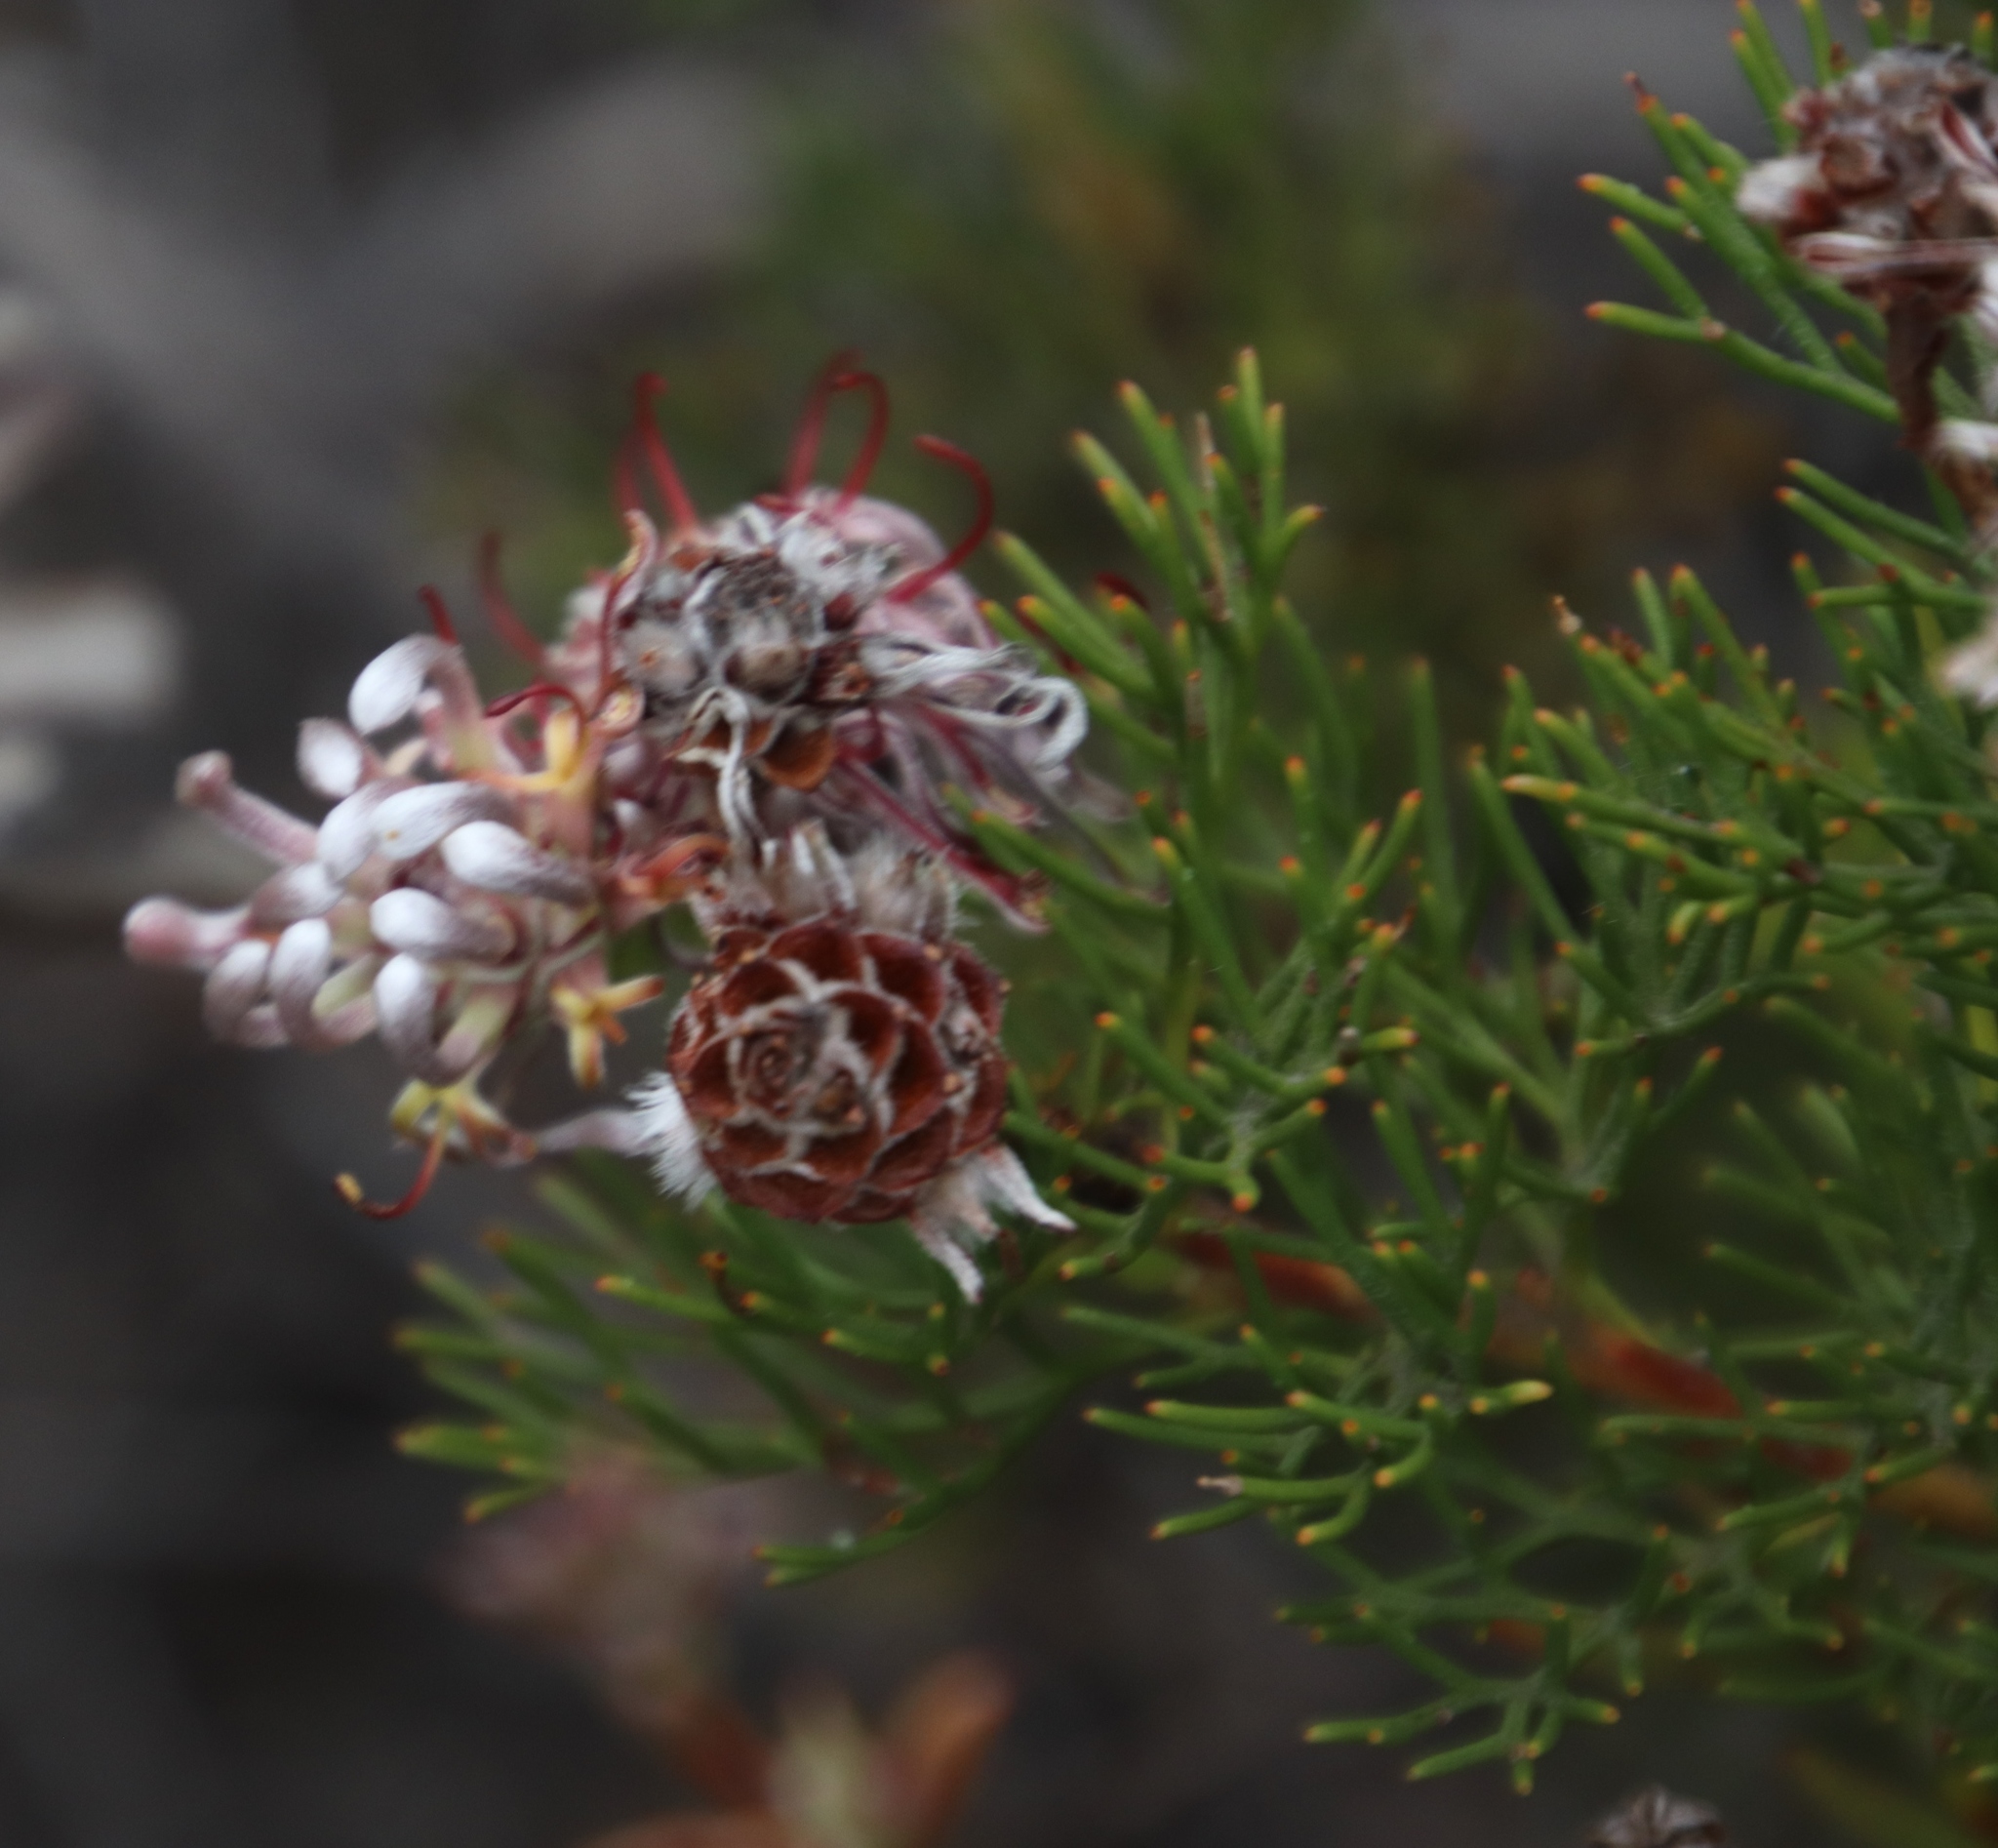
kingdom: Plantae
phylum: Tracheophyta
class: Magnoliopsida
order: Proteales
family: Proteaceae
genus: Serruria
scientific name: Serruria gremialis
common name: Riviersonderend spiderhead
